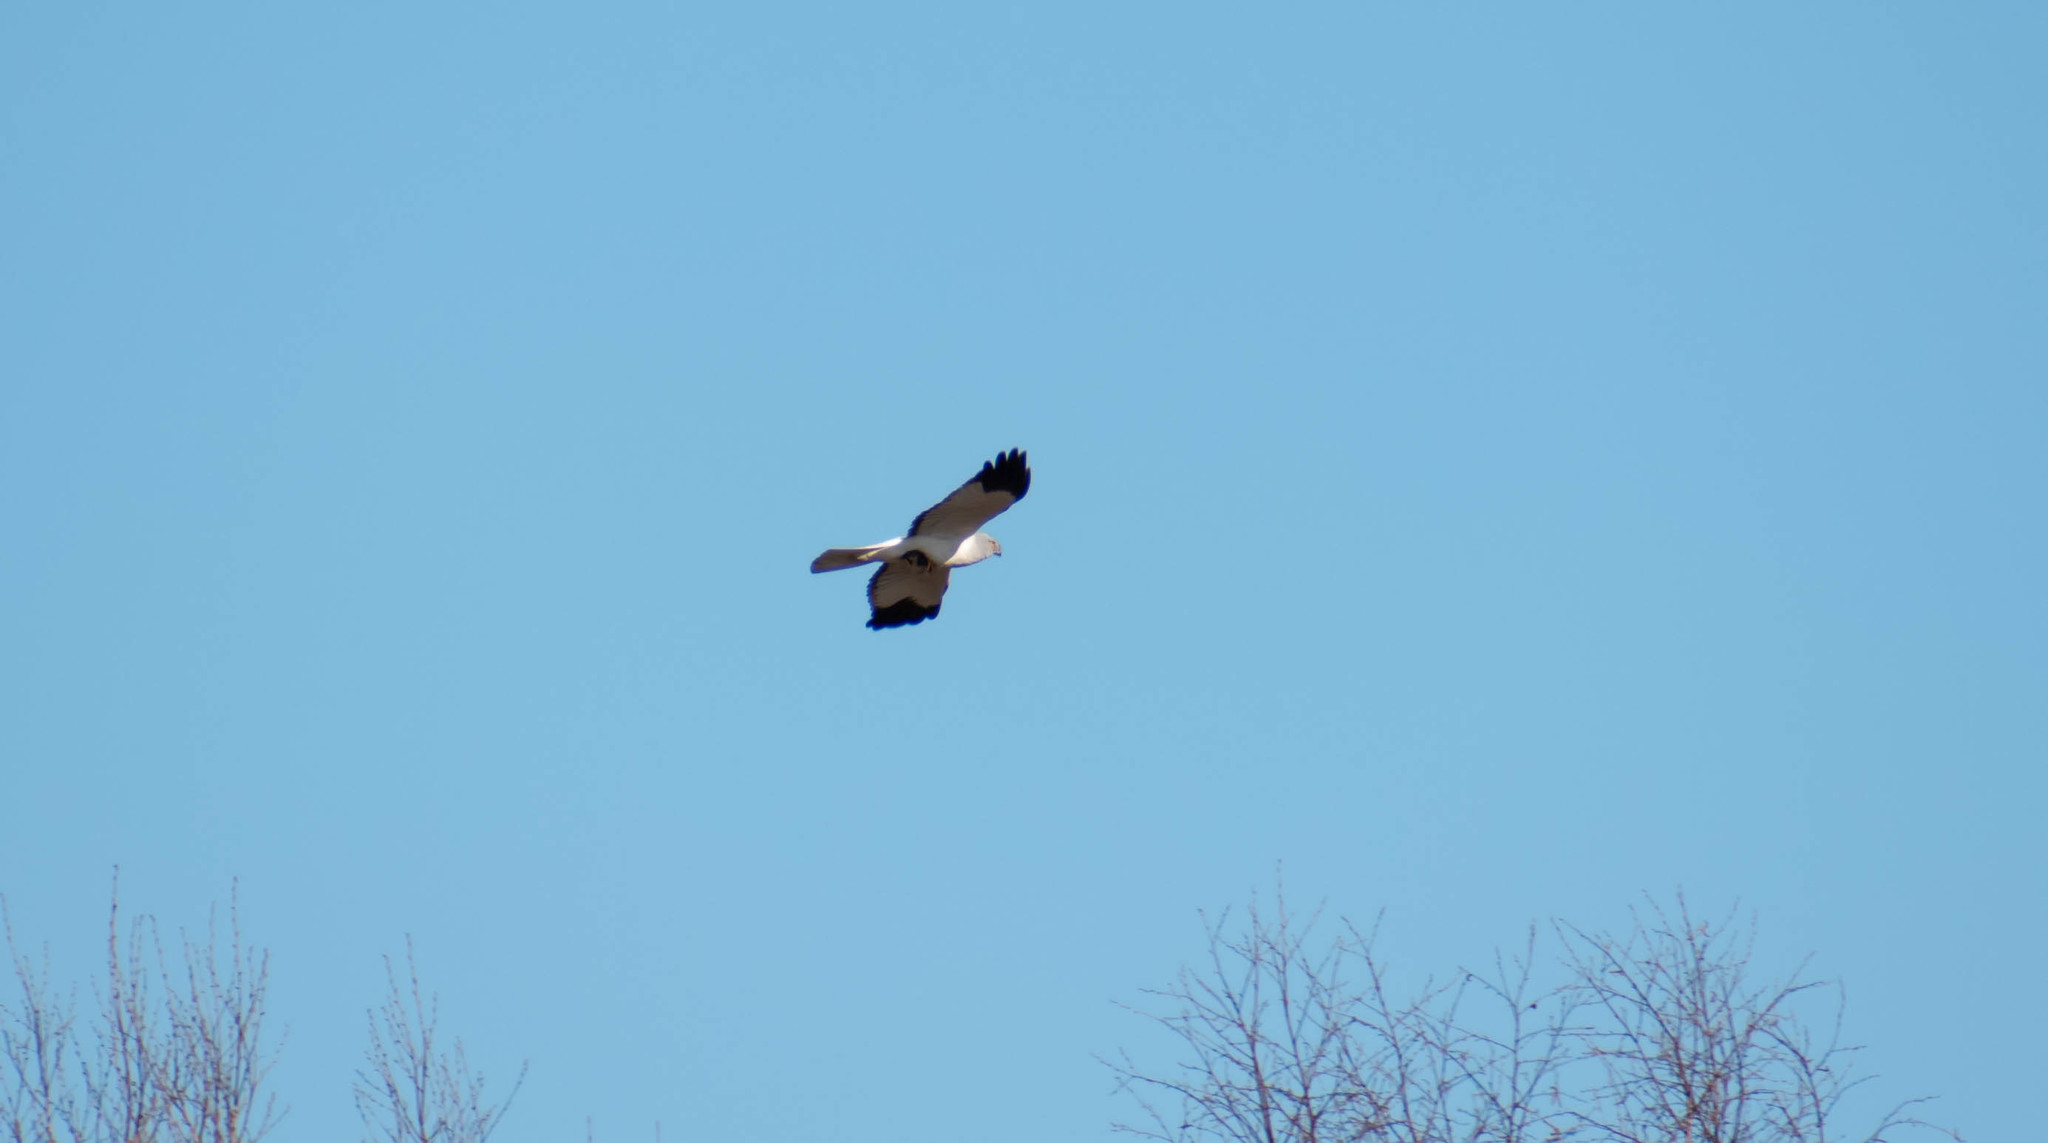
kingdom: Animalia
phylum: Chordata
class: Aves
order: Accipitriformes
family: Accipitridae
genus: Circus
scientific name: Circus cyaneus
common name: Hen harrier
